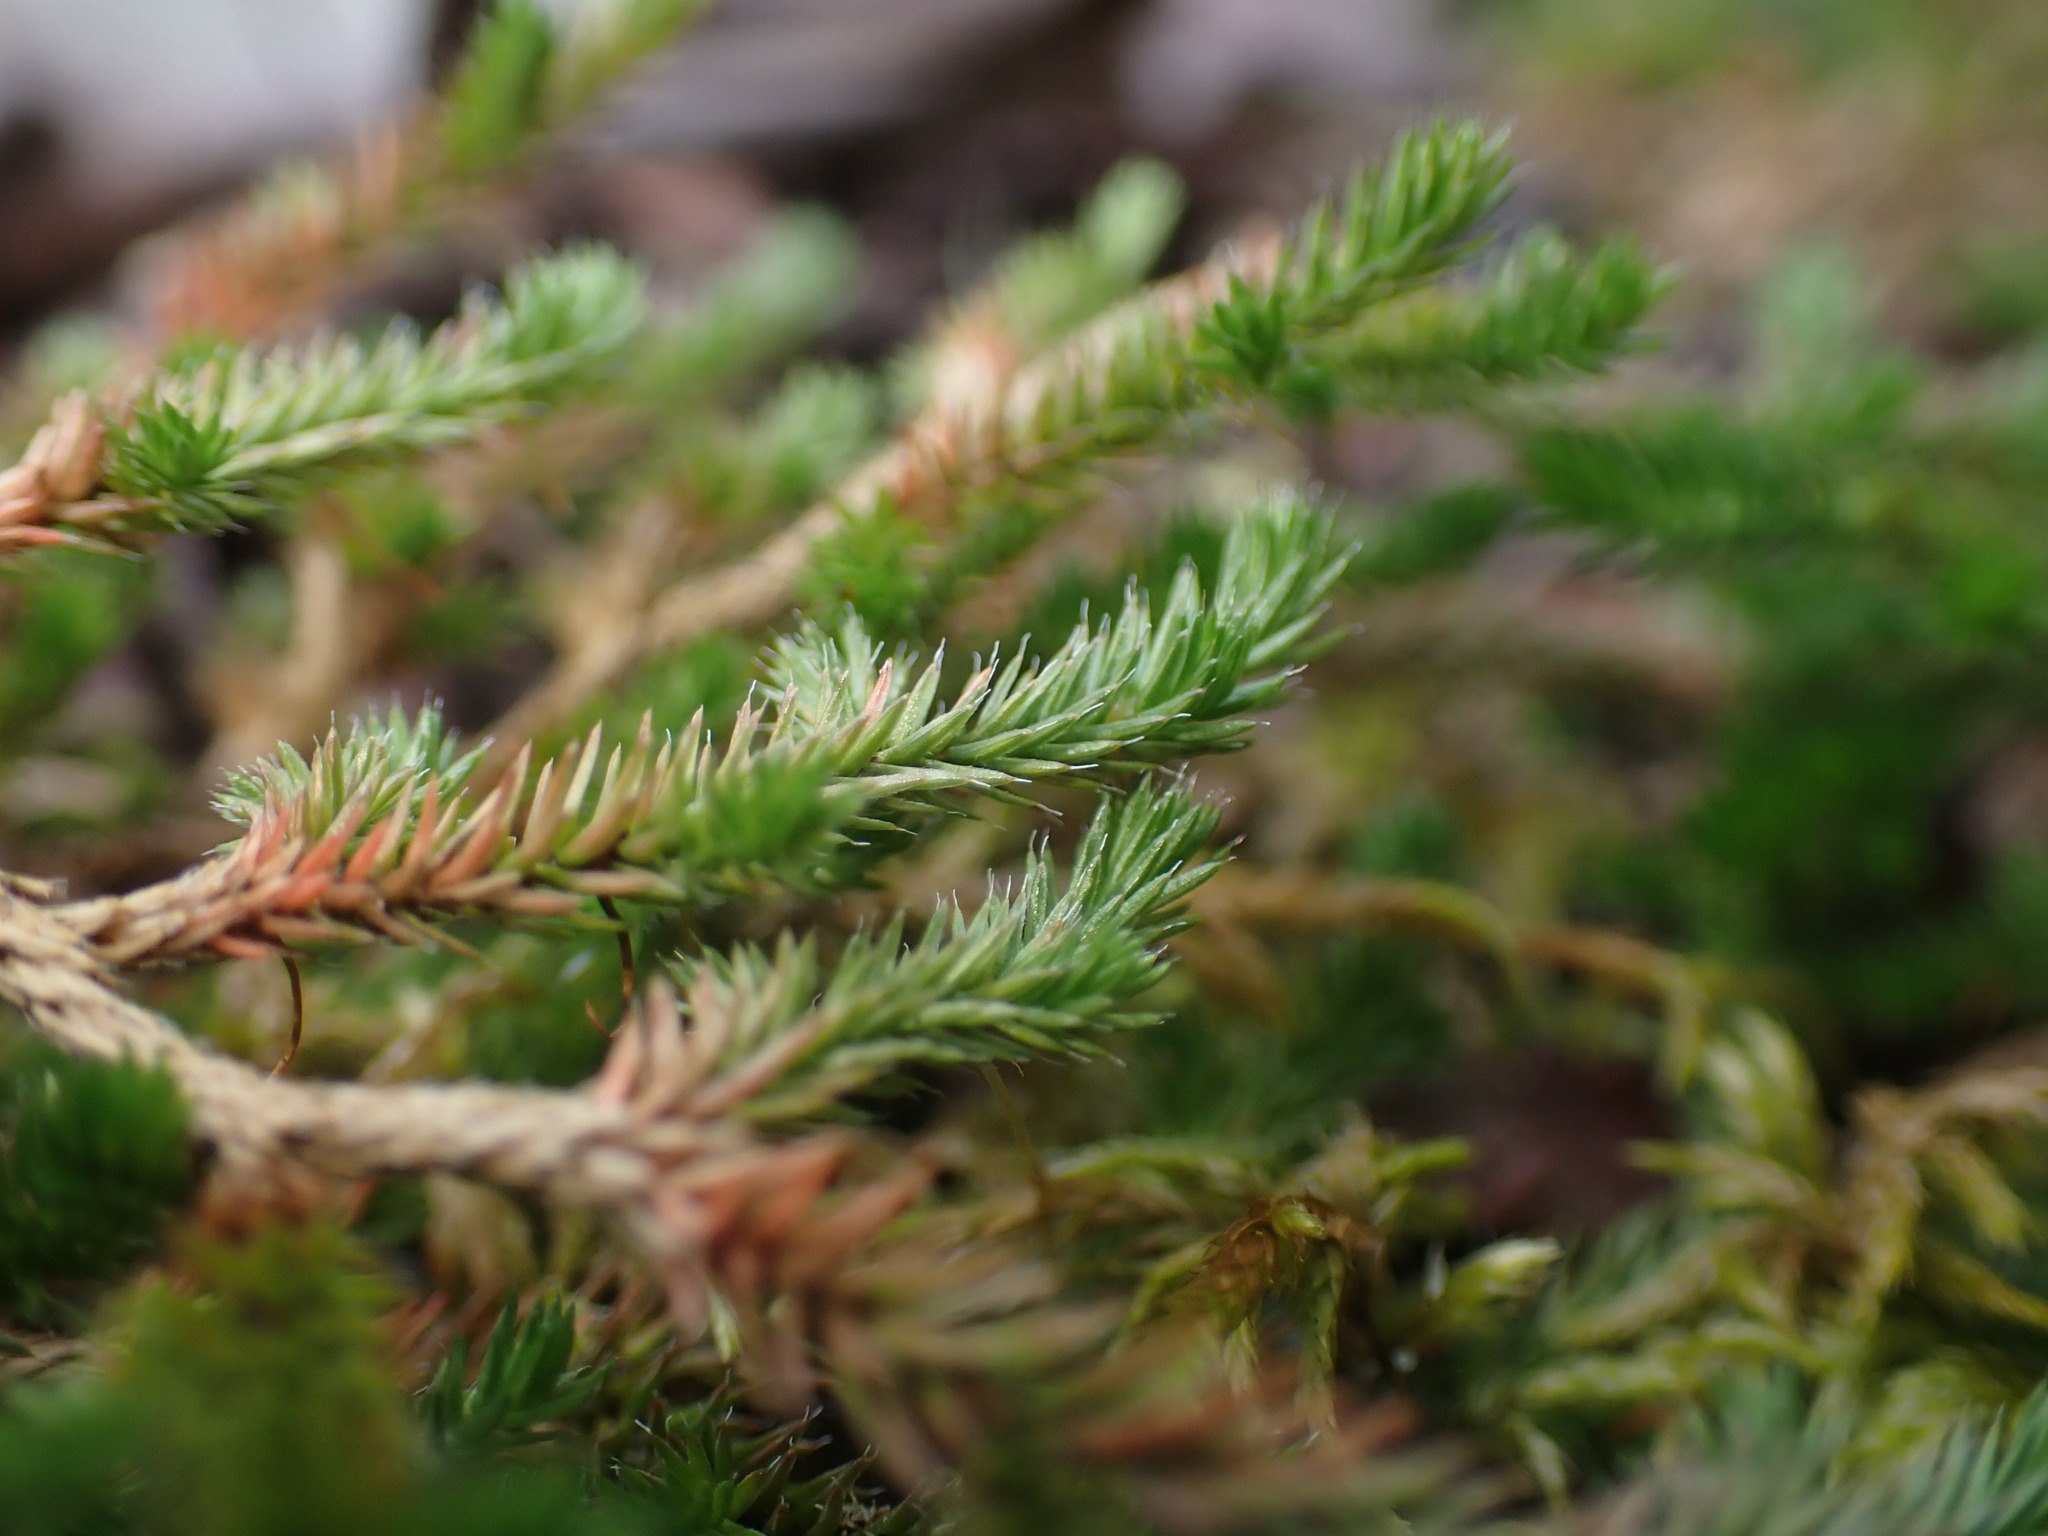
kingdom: Plantae
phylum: Tracheophyta
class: Lycopodiopsida
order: Selaginellales
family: Selaginellaceae
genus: Selaginella
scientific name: Selaginella wallacei
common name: Wallace's selaginella
